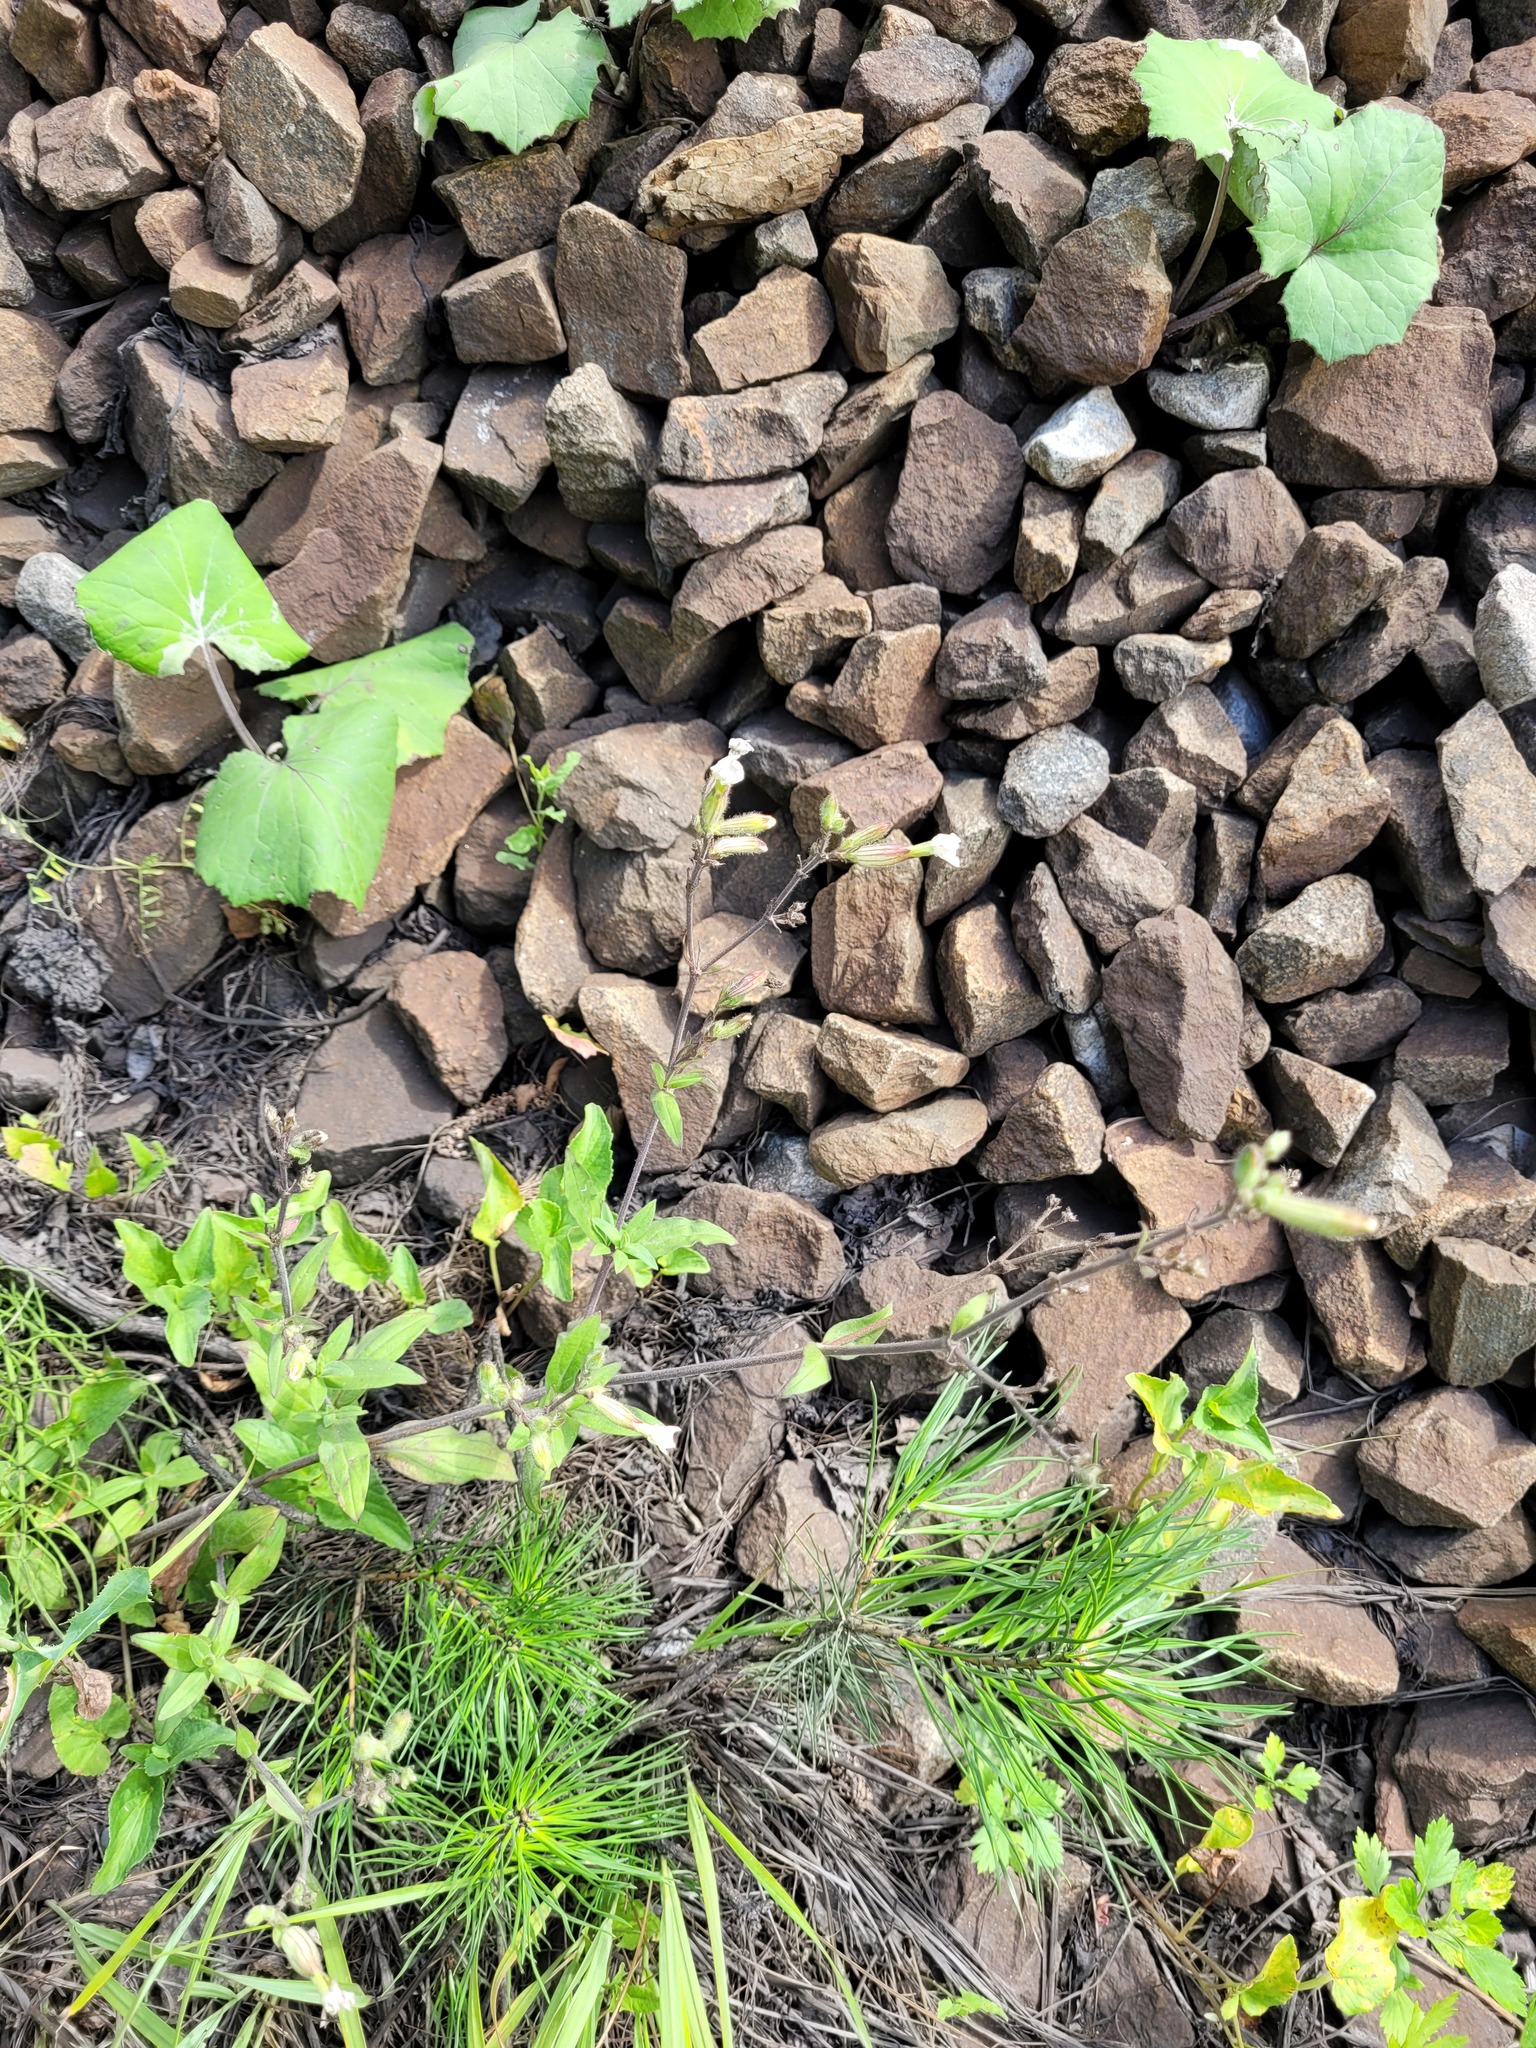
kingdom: Plantae
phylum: Tracheophyta
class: Magnoliopsida
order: Caryophyllales
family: Caryophyllaceae
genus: Silene
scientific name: Silene latifolia
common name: White campion
